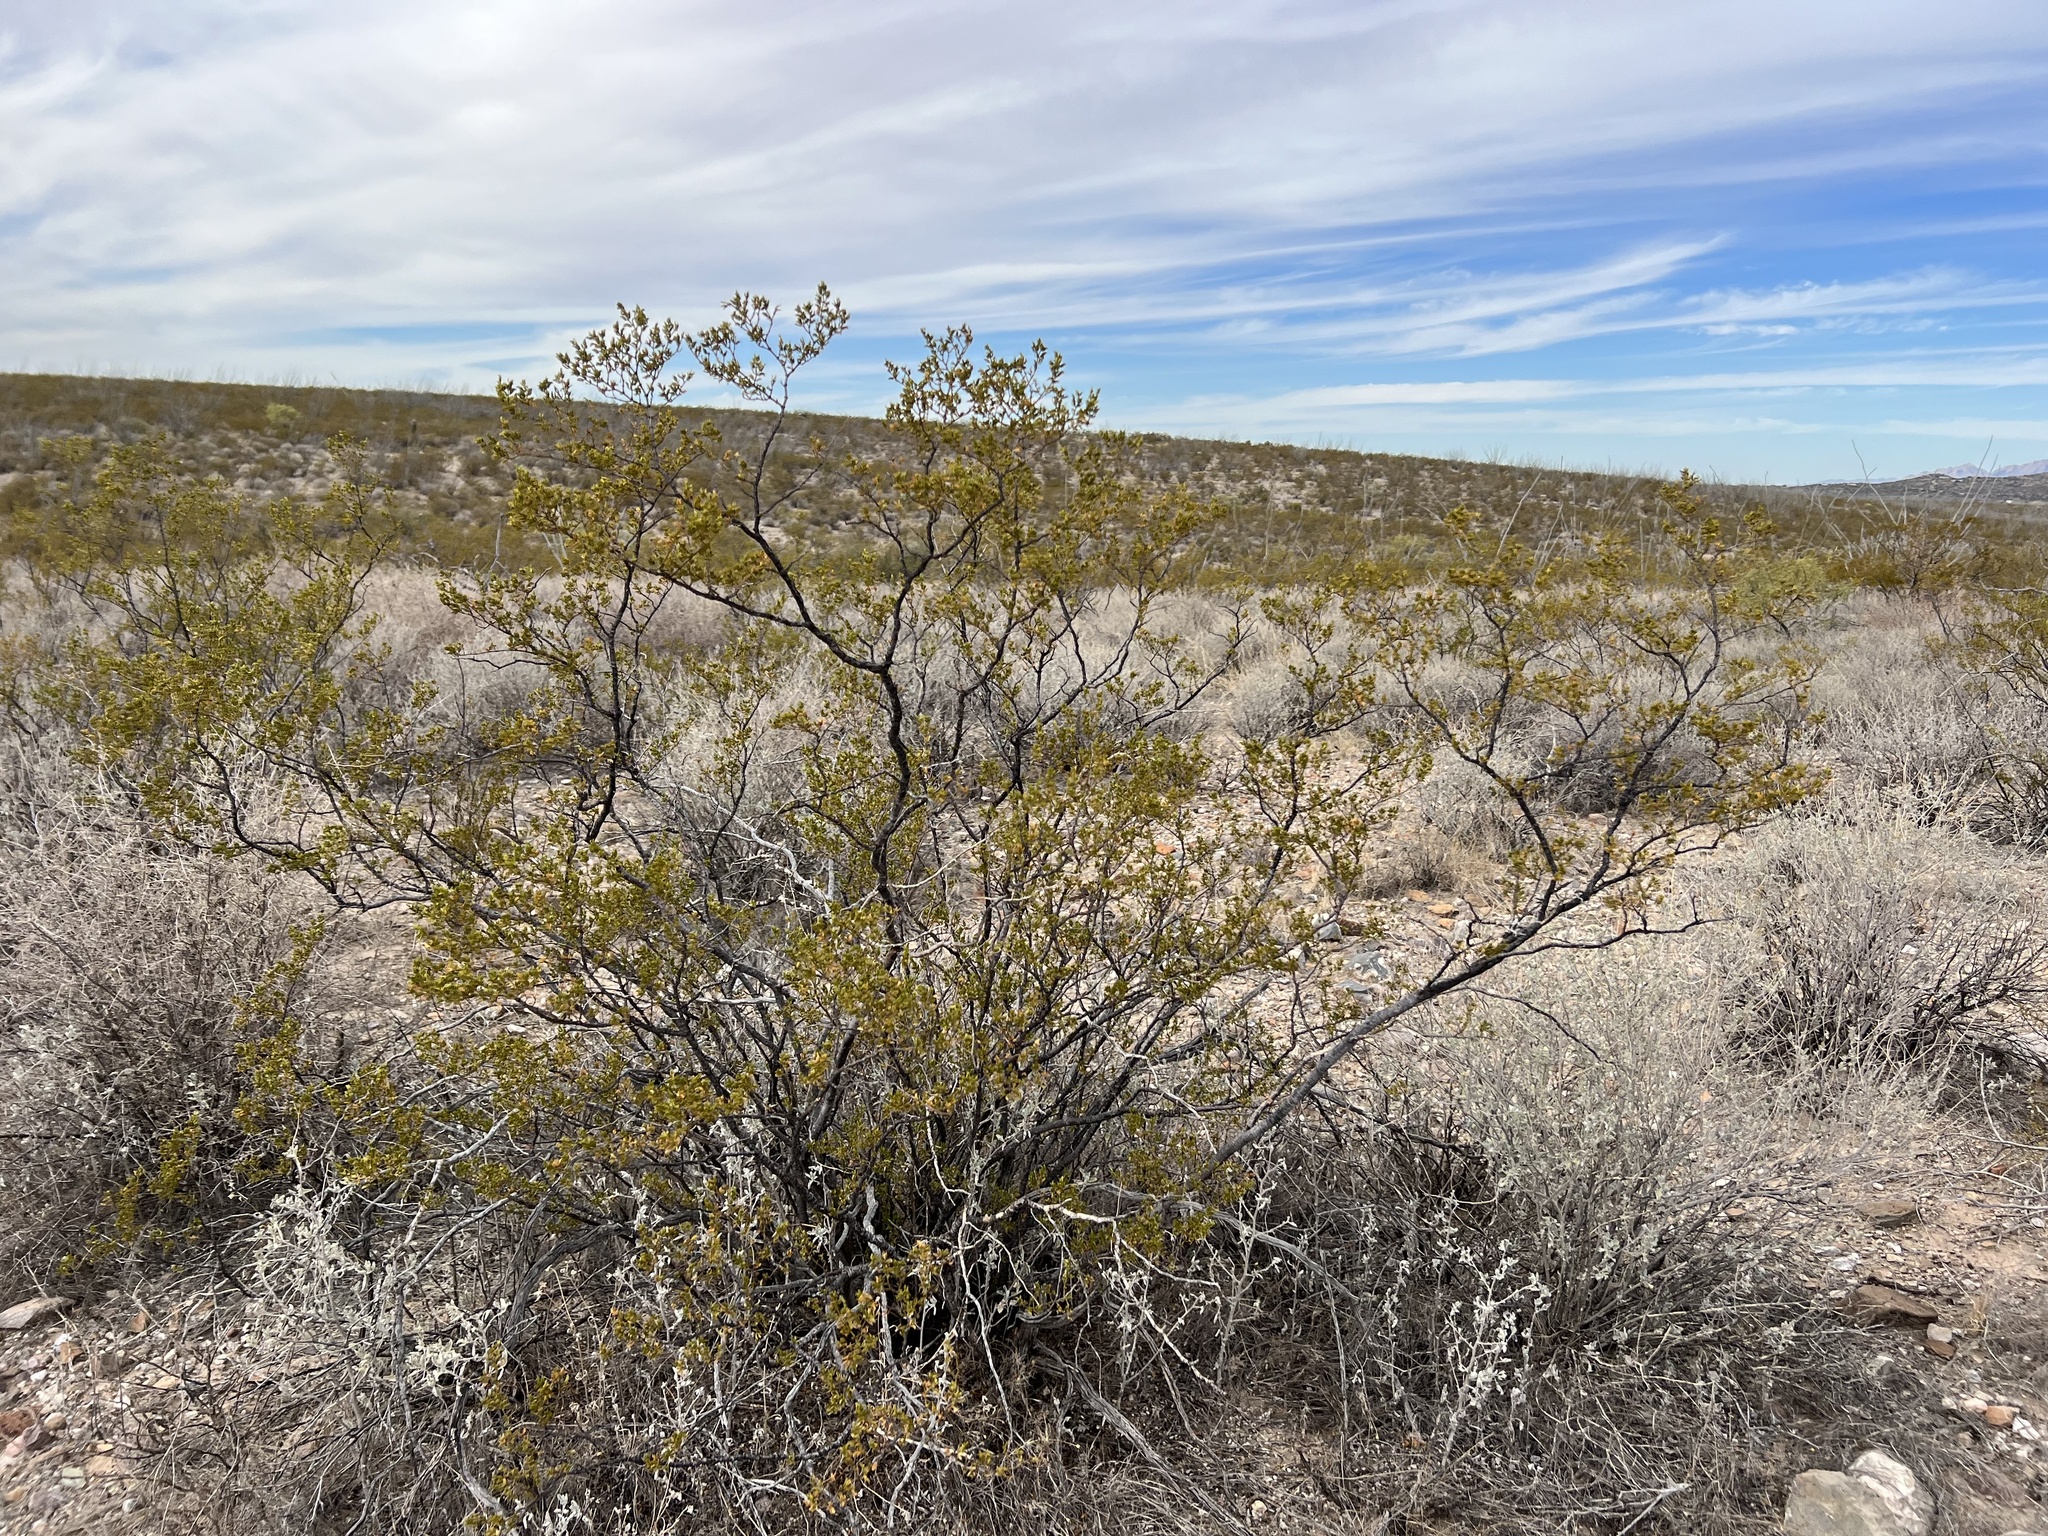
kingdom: Plantae
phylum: Tracheophyta
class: Magnoliopsida
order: Zygophyllales
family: Zygophyllaceae
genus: Larrea
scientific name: Larrea tridentata
